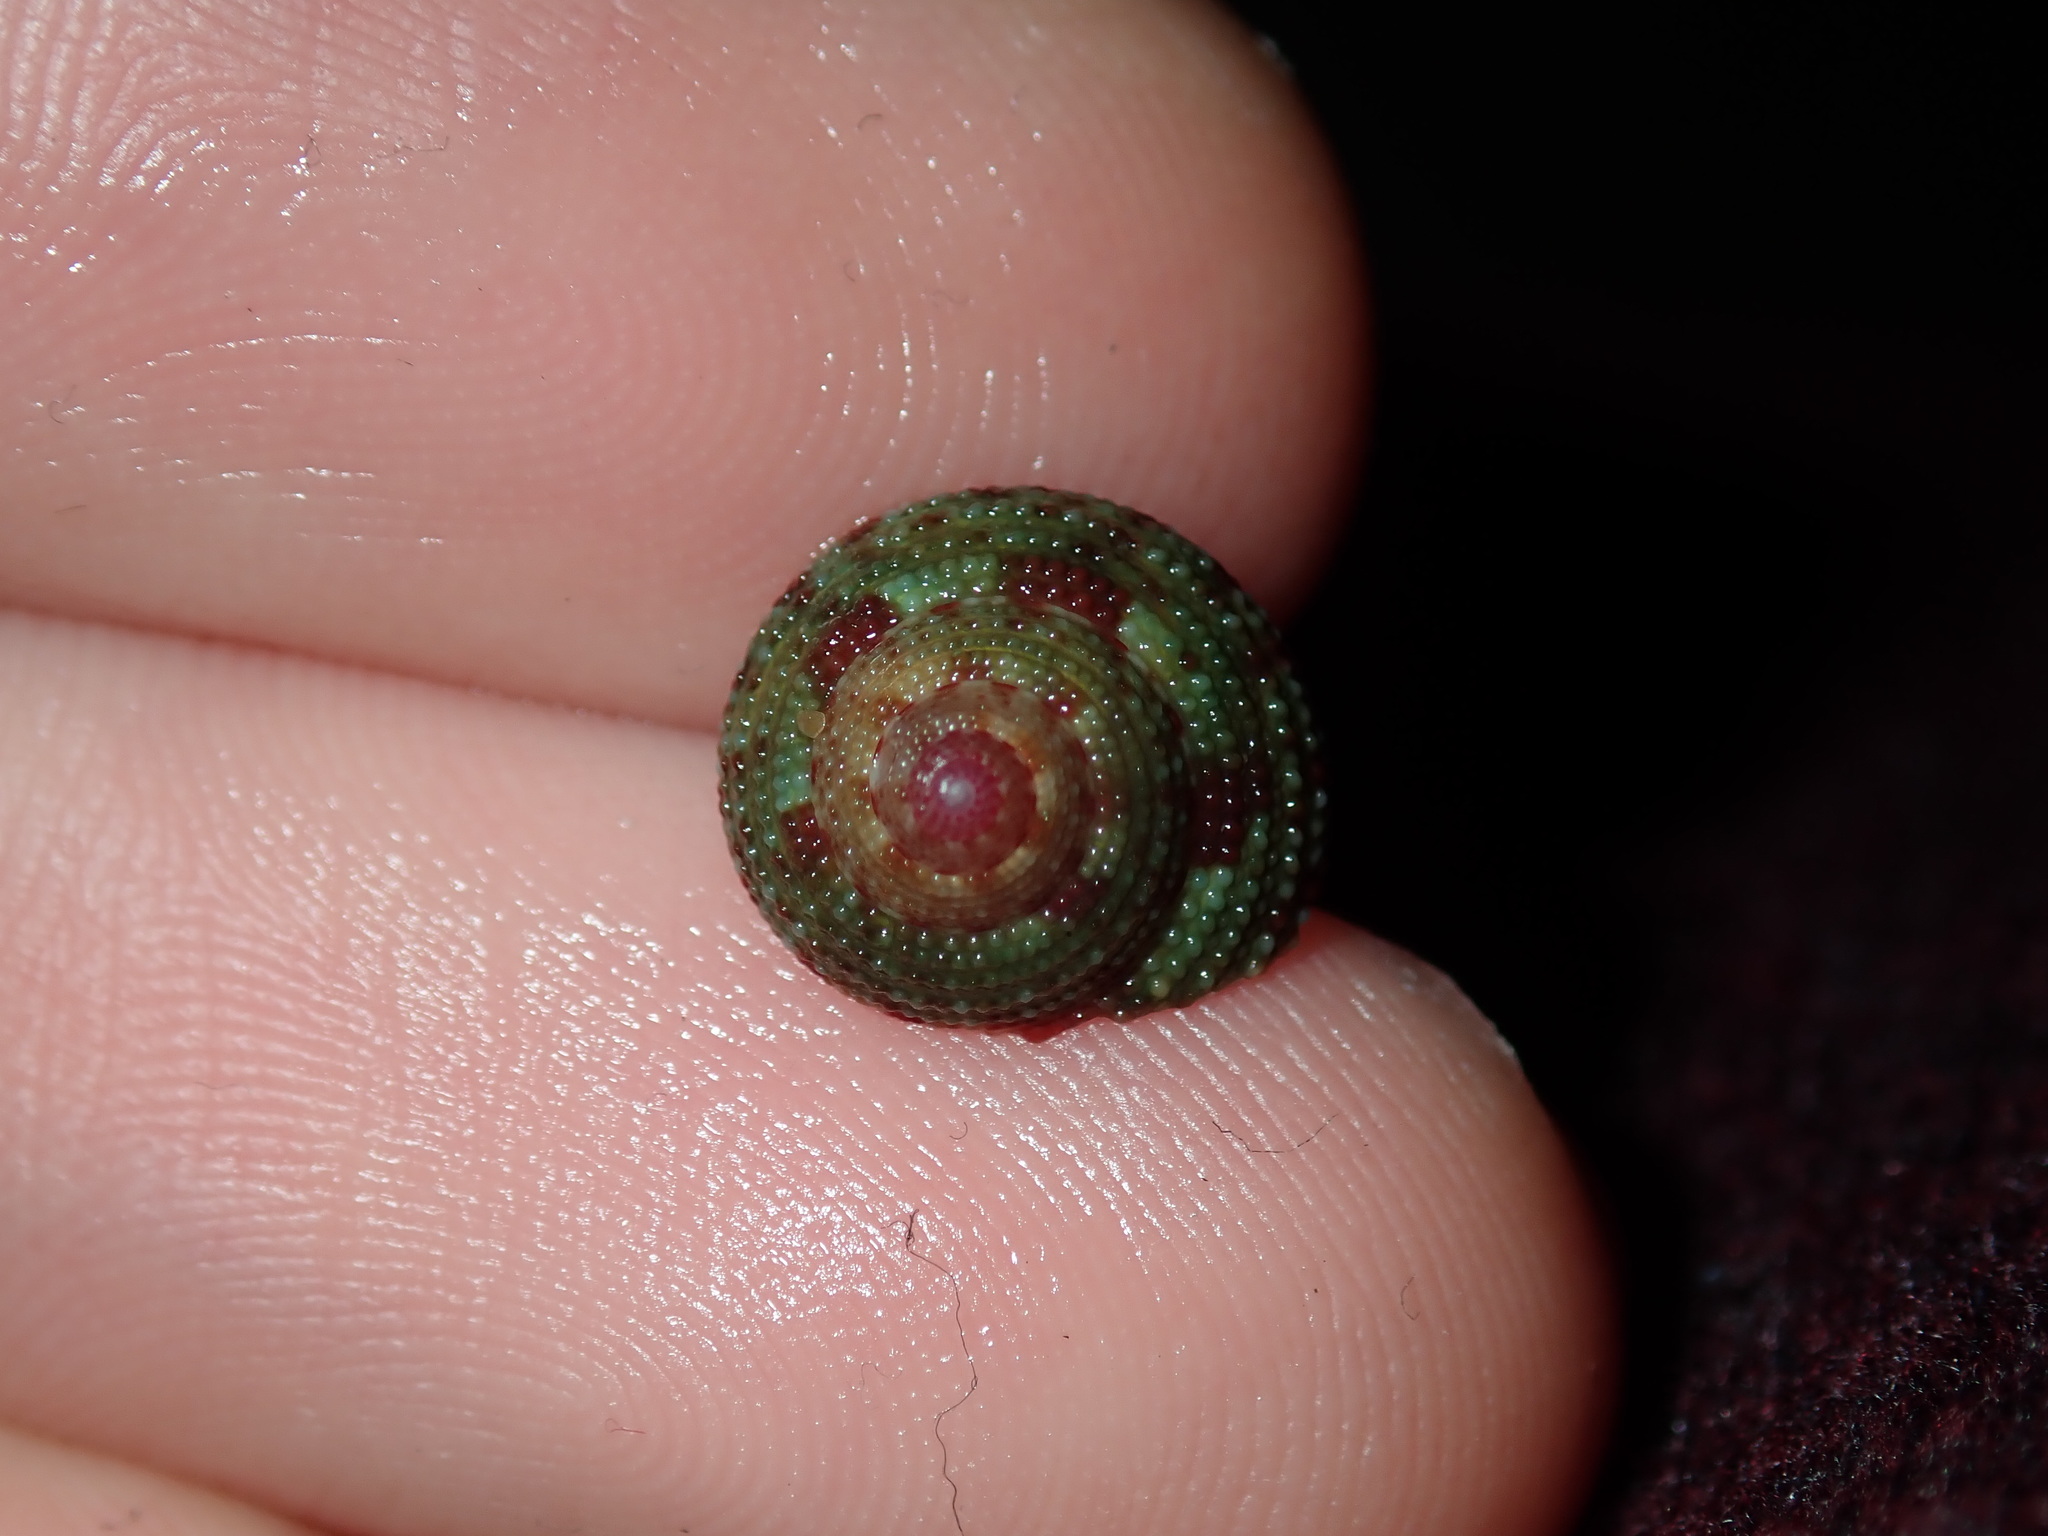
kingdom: Animalia
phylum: Mollusca
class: Gastropoda
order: Trochida
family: Trochidae
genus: Clanculus
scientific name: Clanculus clangulus
